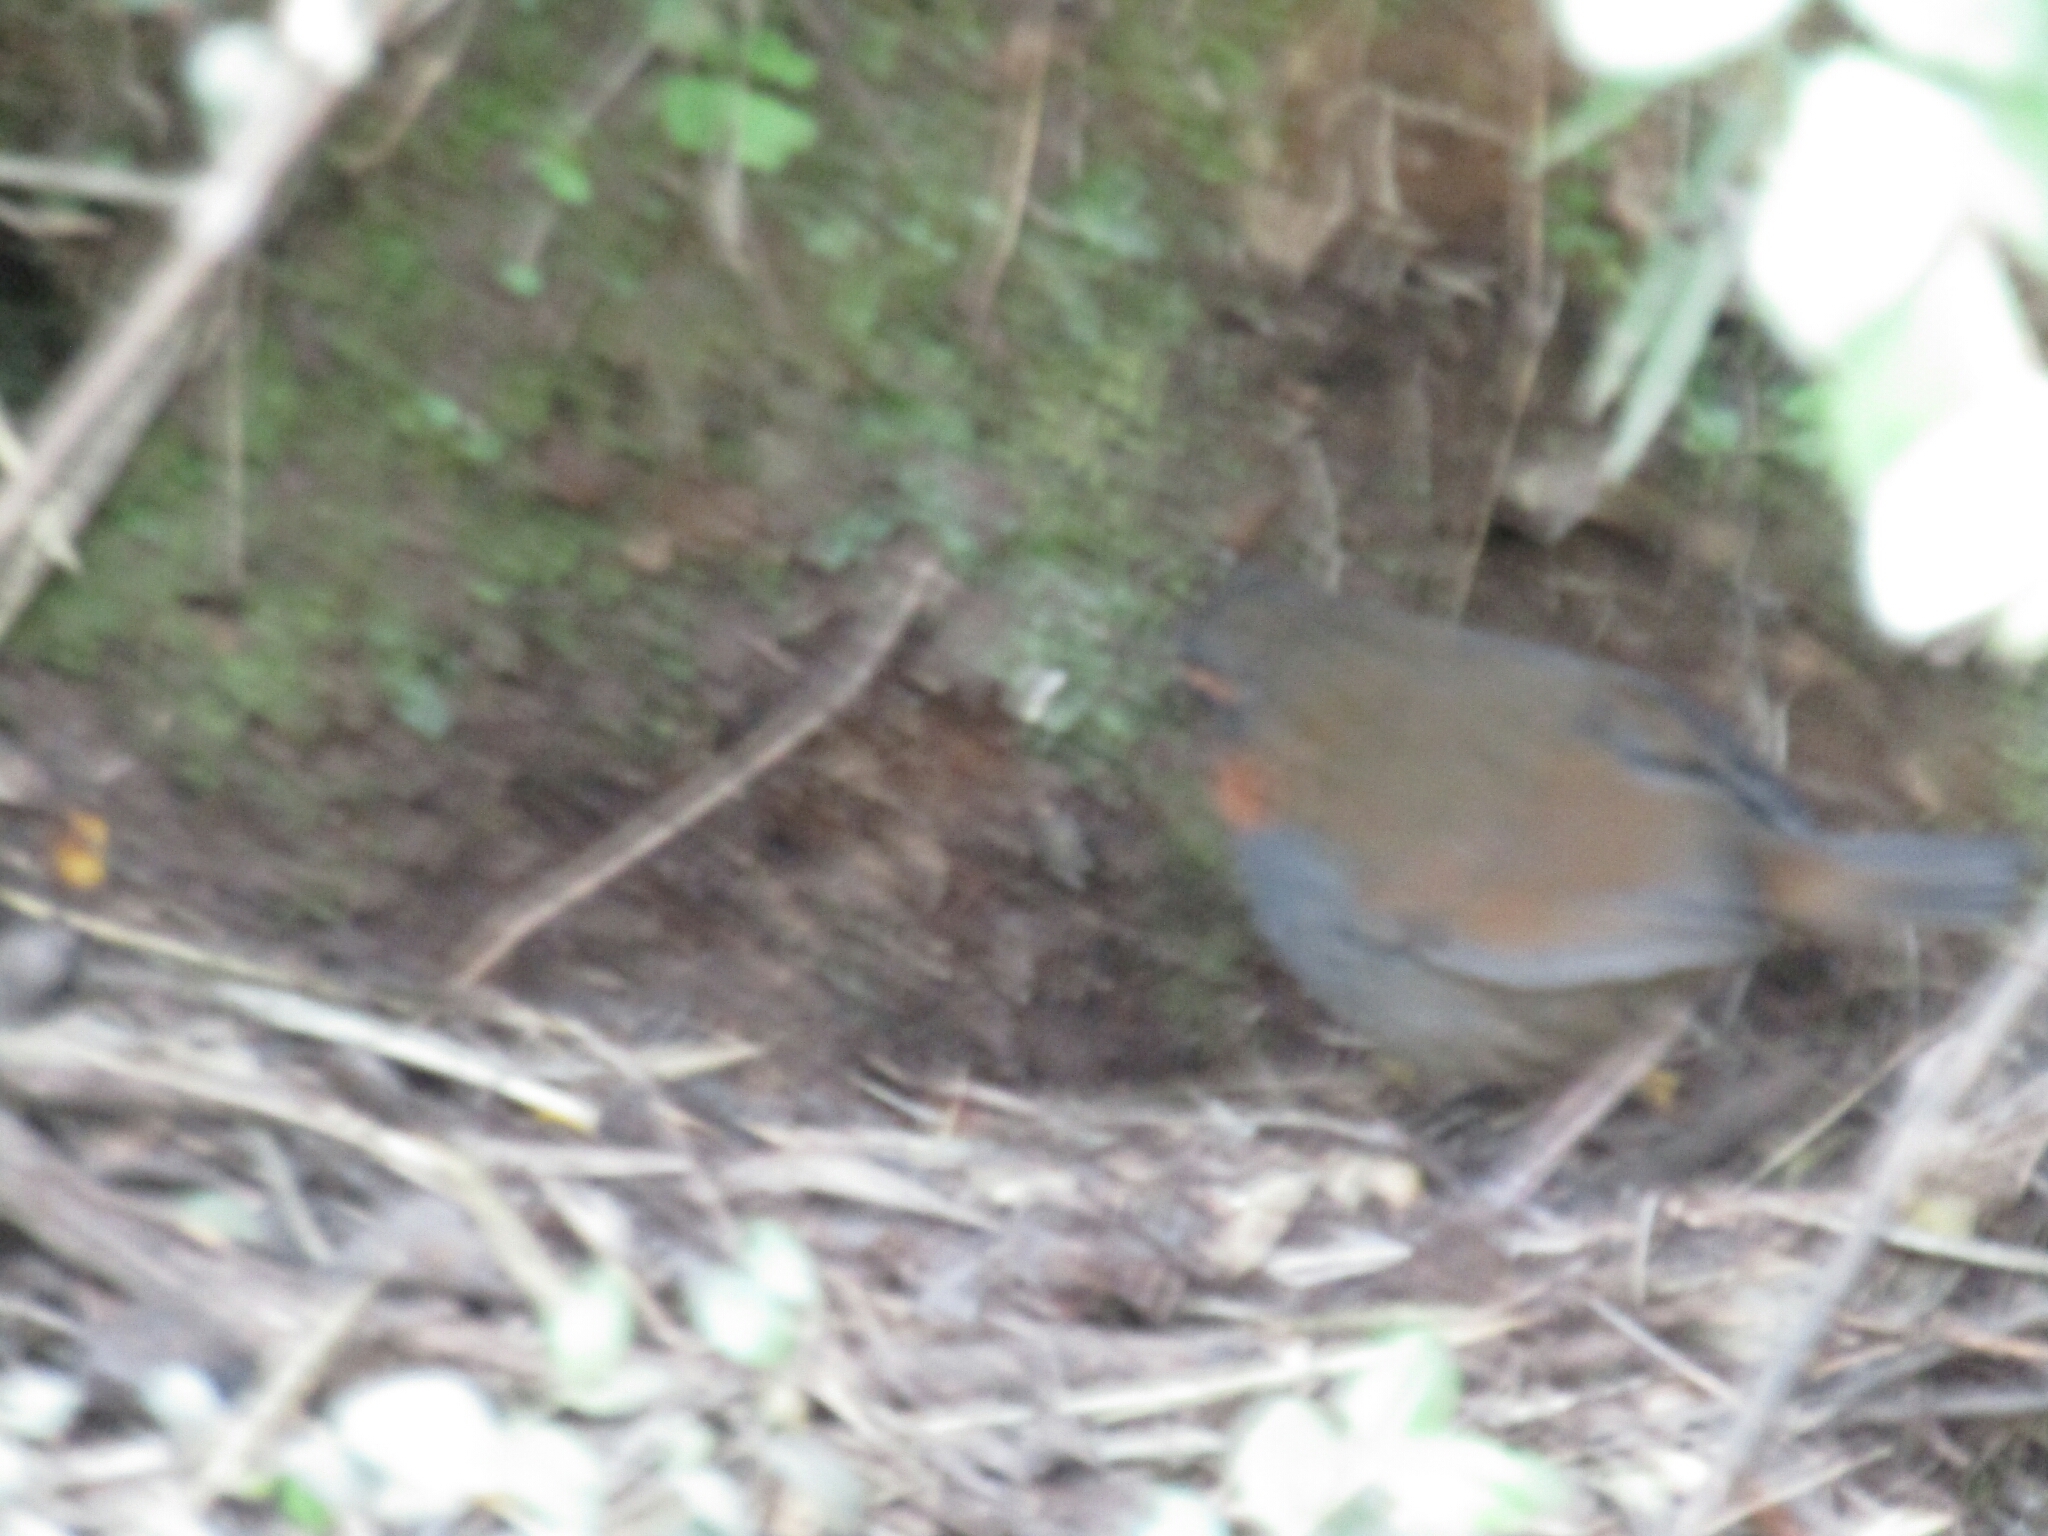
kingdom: Animalia
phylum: Chordata
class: Aves
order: Passeriformes
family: Rhinocryptidae
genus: Scelorchilus
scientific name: Scelorchilus rubecula
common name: Chucao tapaculo
